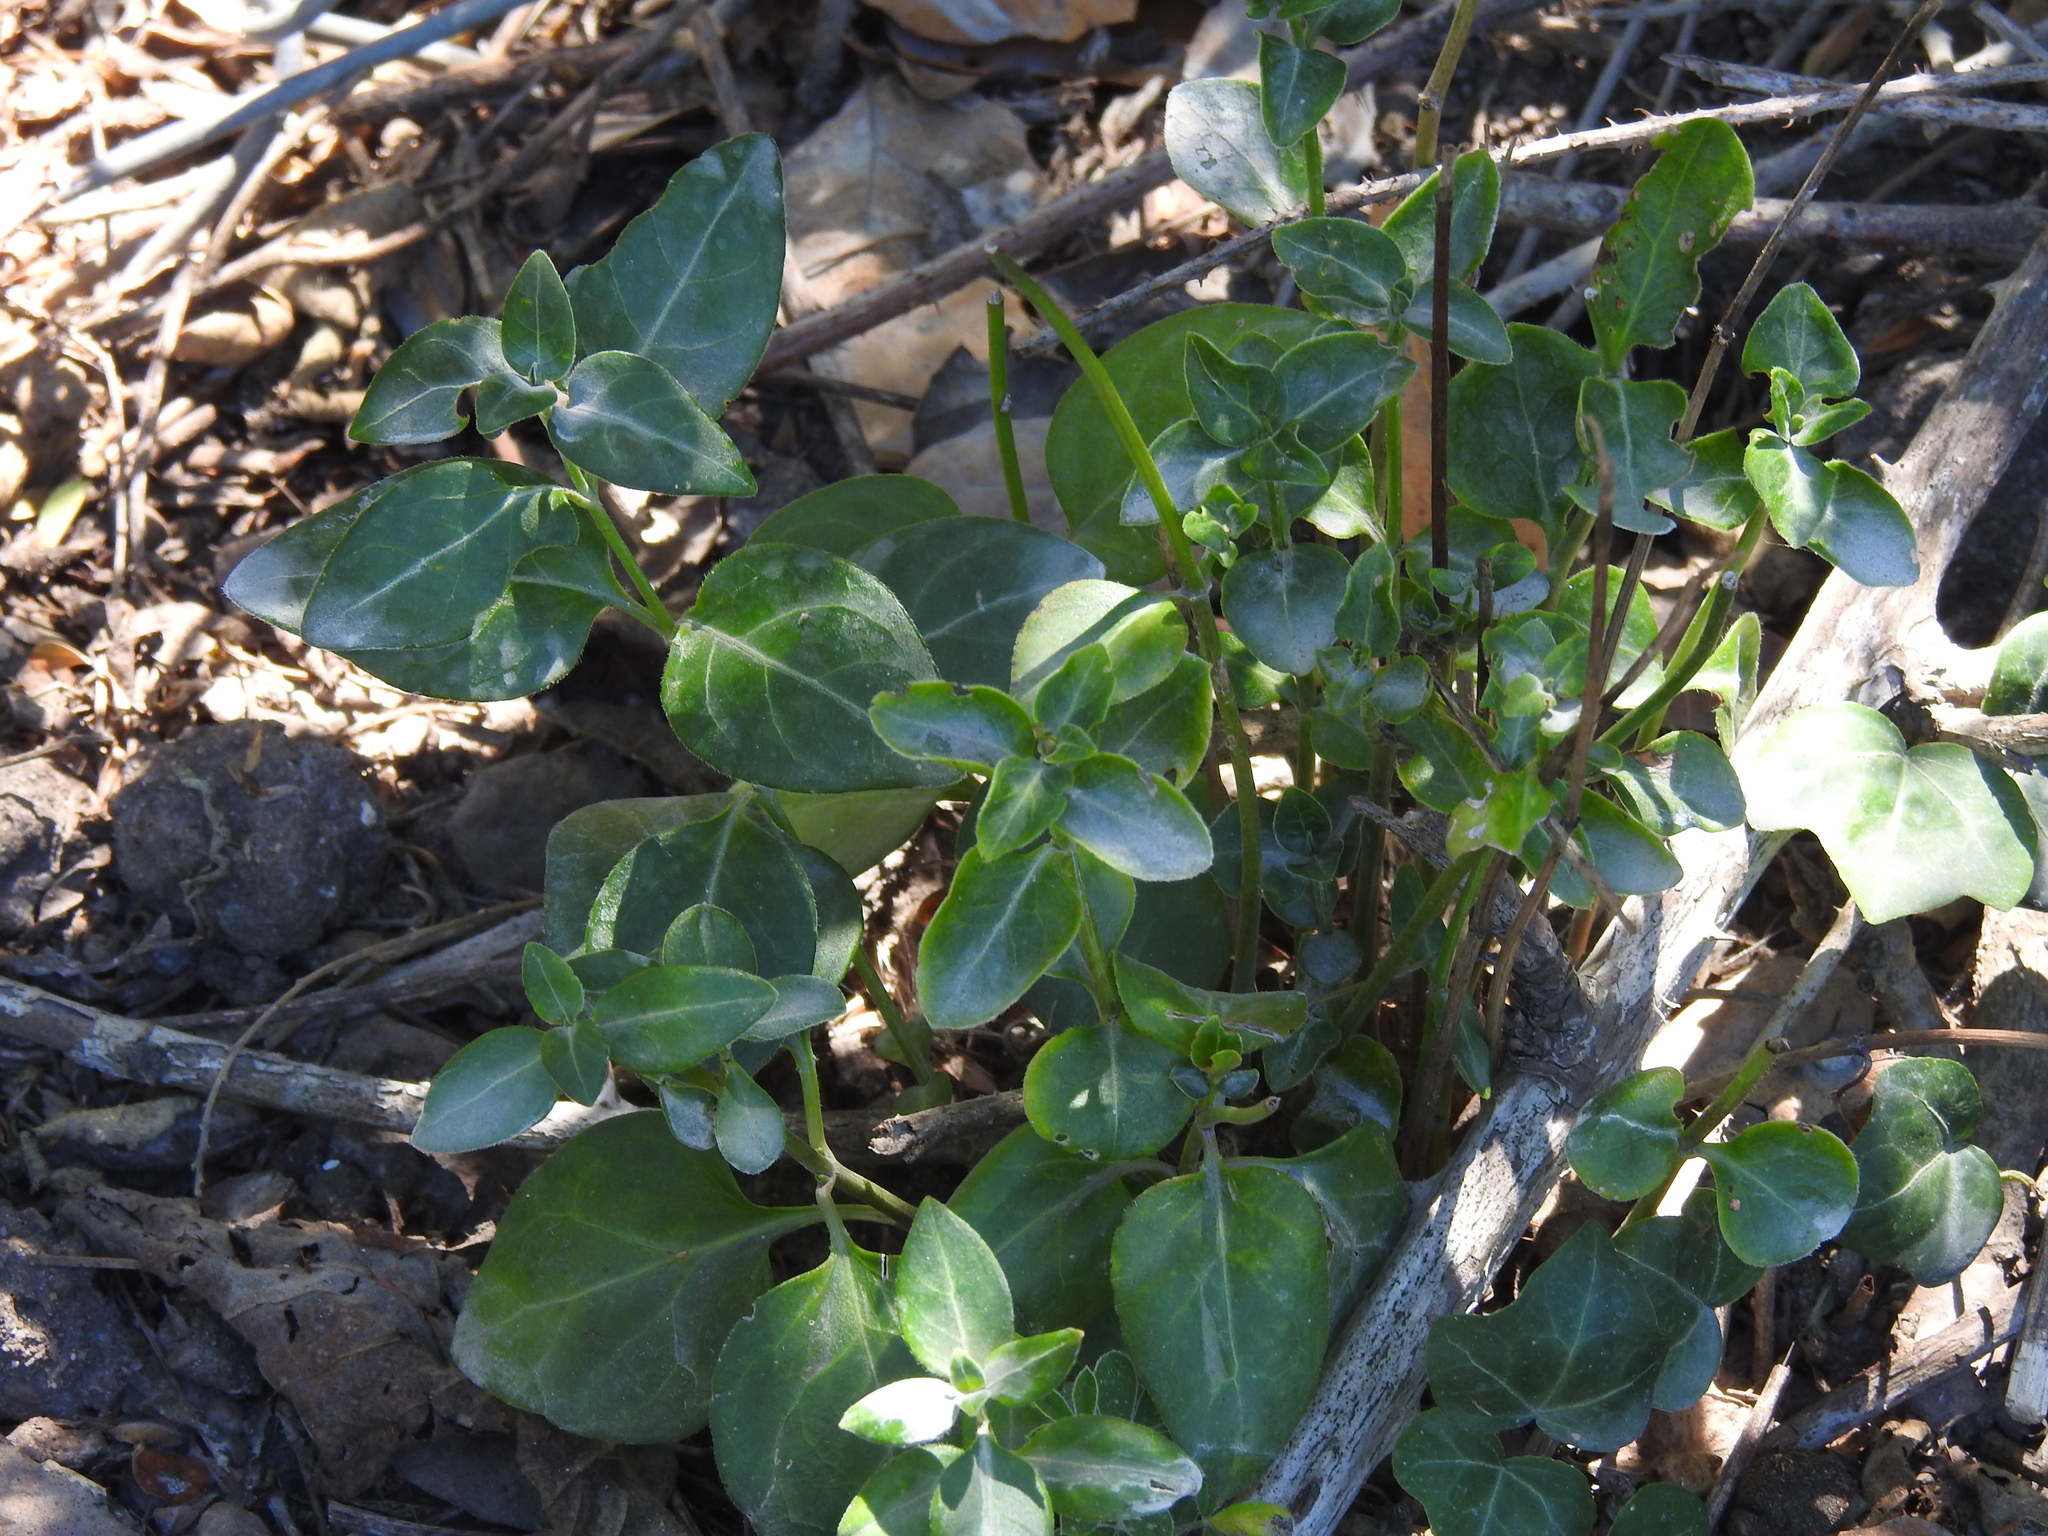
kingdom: Plantae
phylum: Tracheophyta
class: Magnoliopsida
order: Gentianales
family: Apocynaceae
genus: Vinca
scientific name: Vinca major
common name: Greater periwinkle
